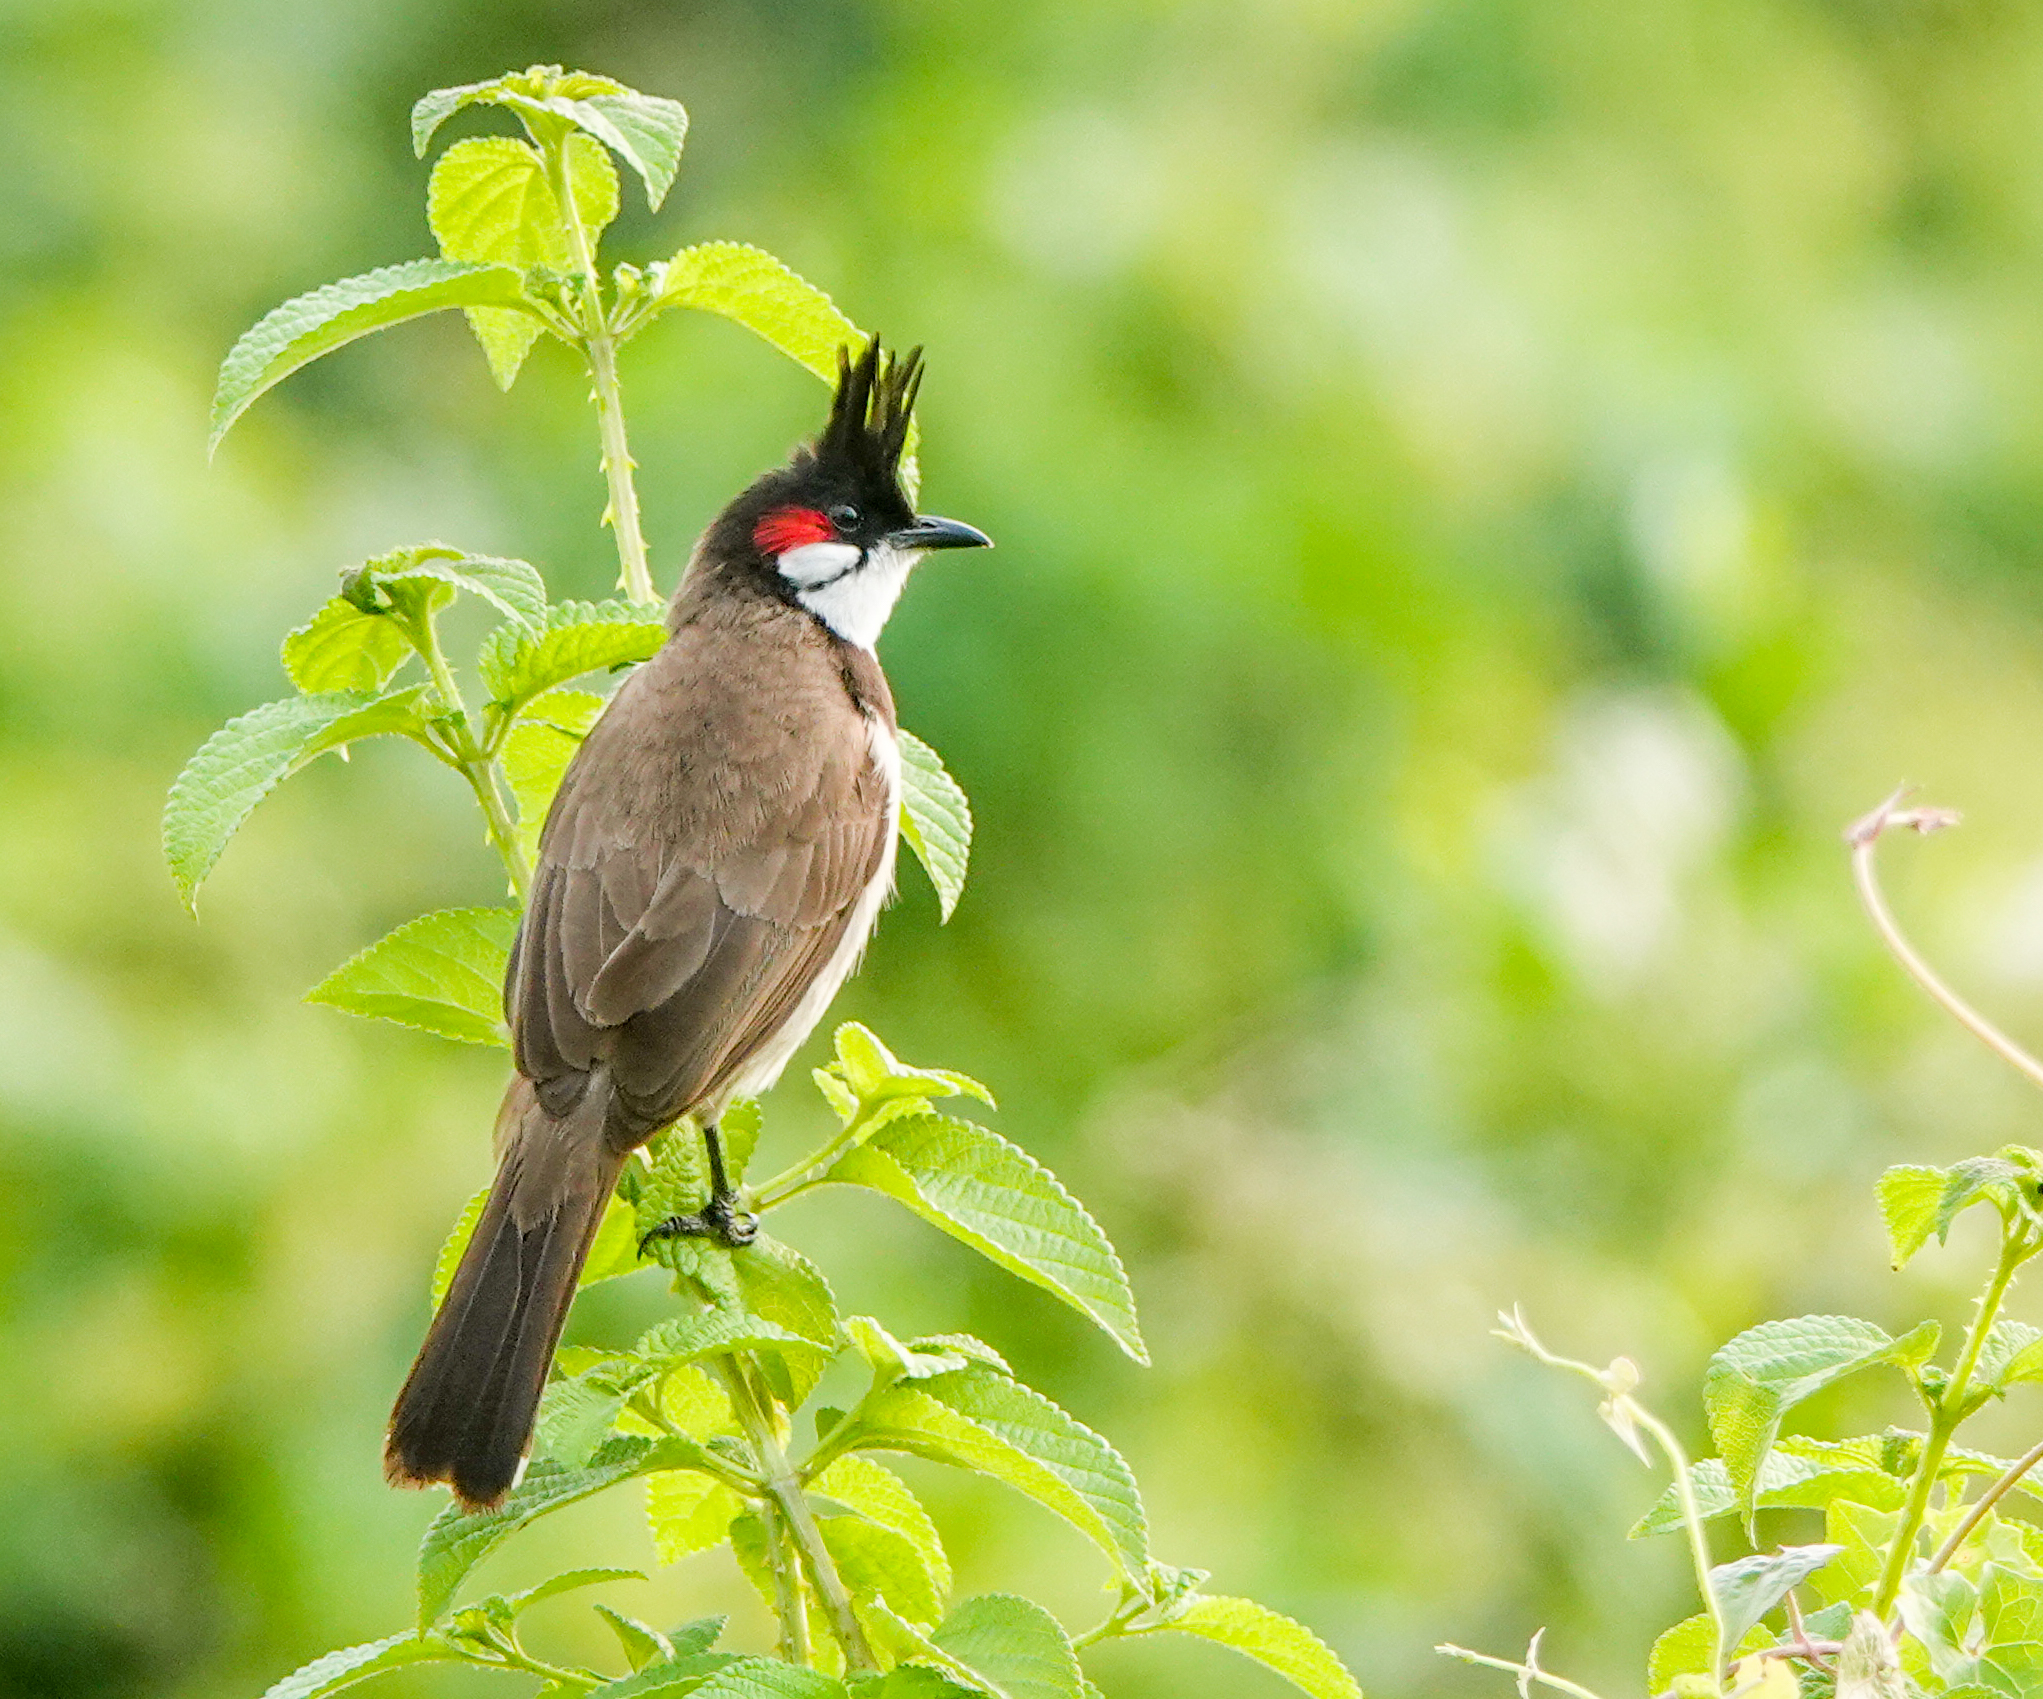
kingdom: Animalia
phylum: Chordata
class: Aves
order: Passeriformes
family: Pycnonotidae
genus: Pycnonotus
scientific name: Pycnonotus jocosus
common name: Red-whiskered bulbul
